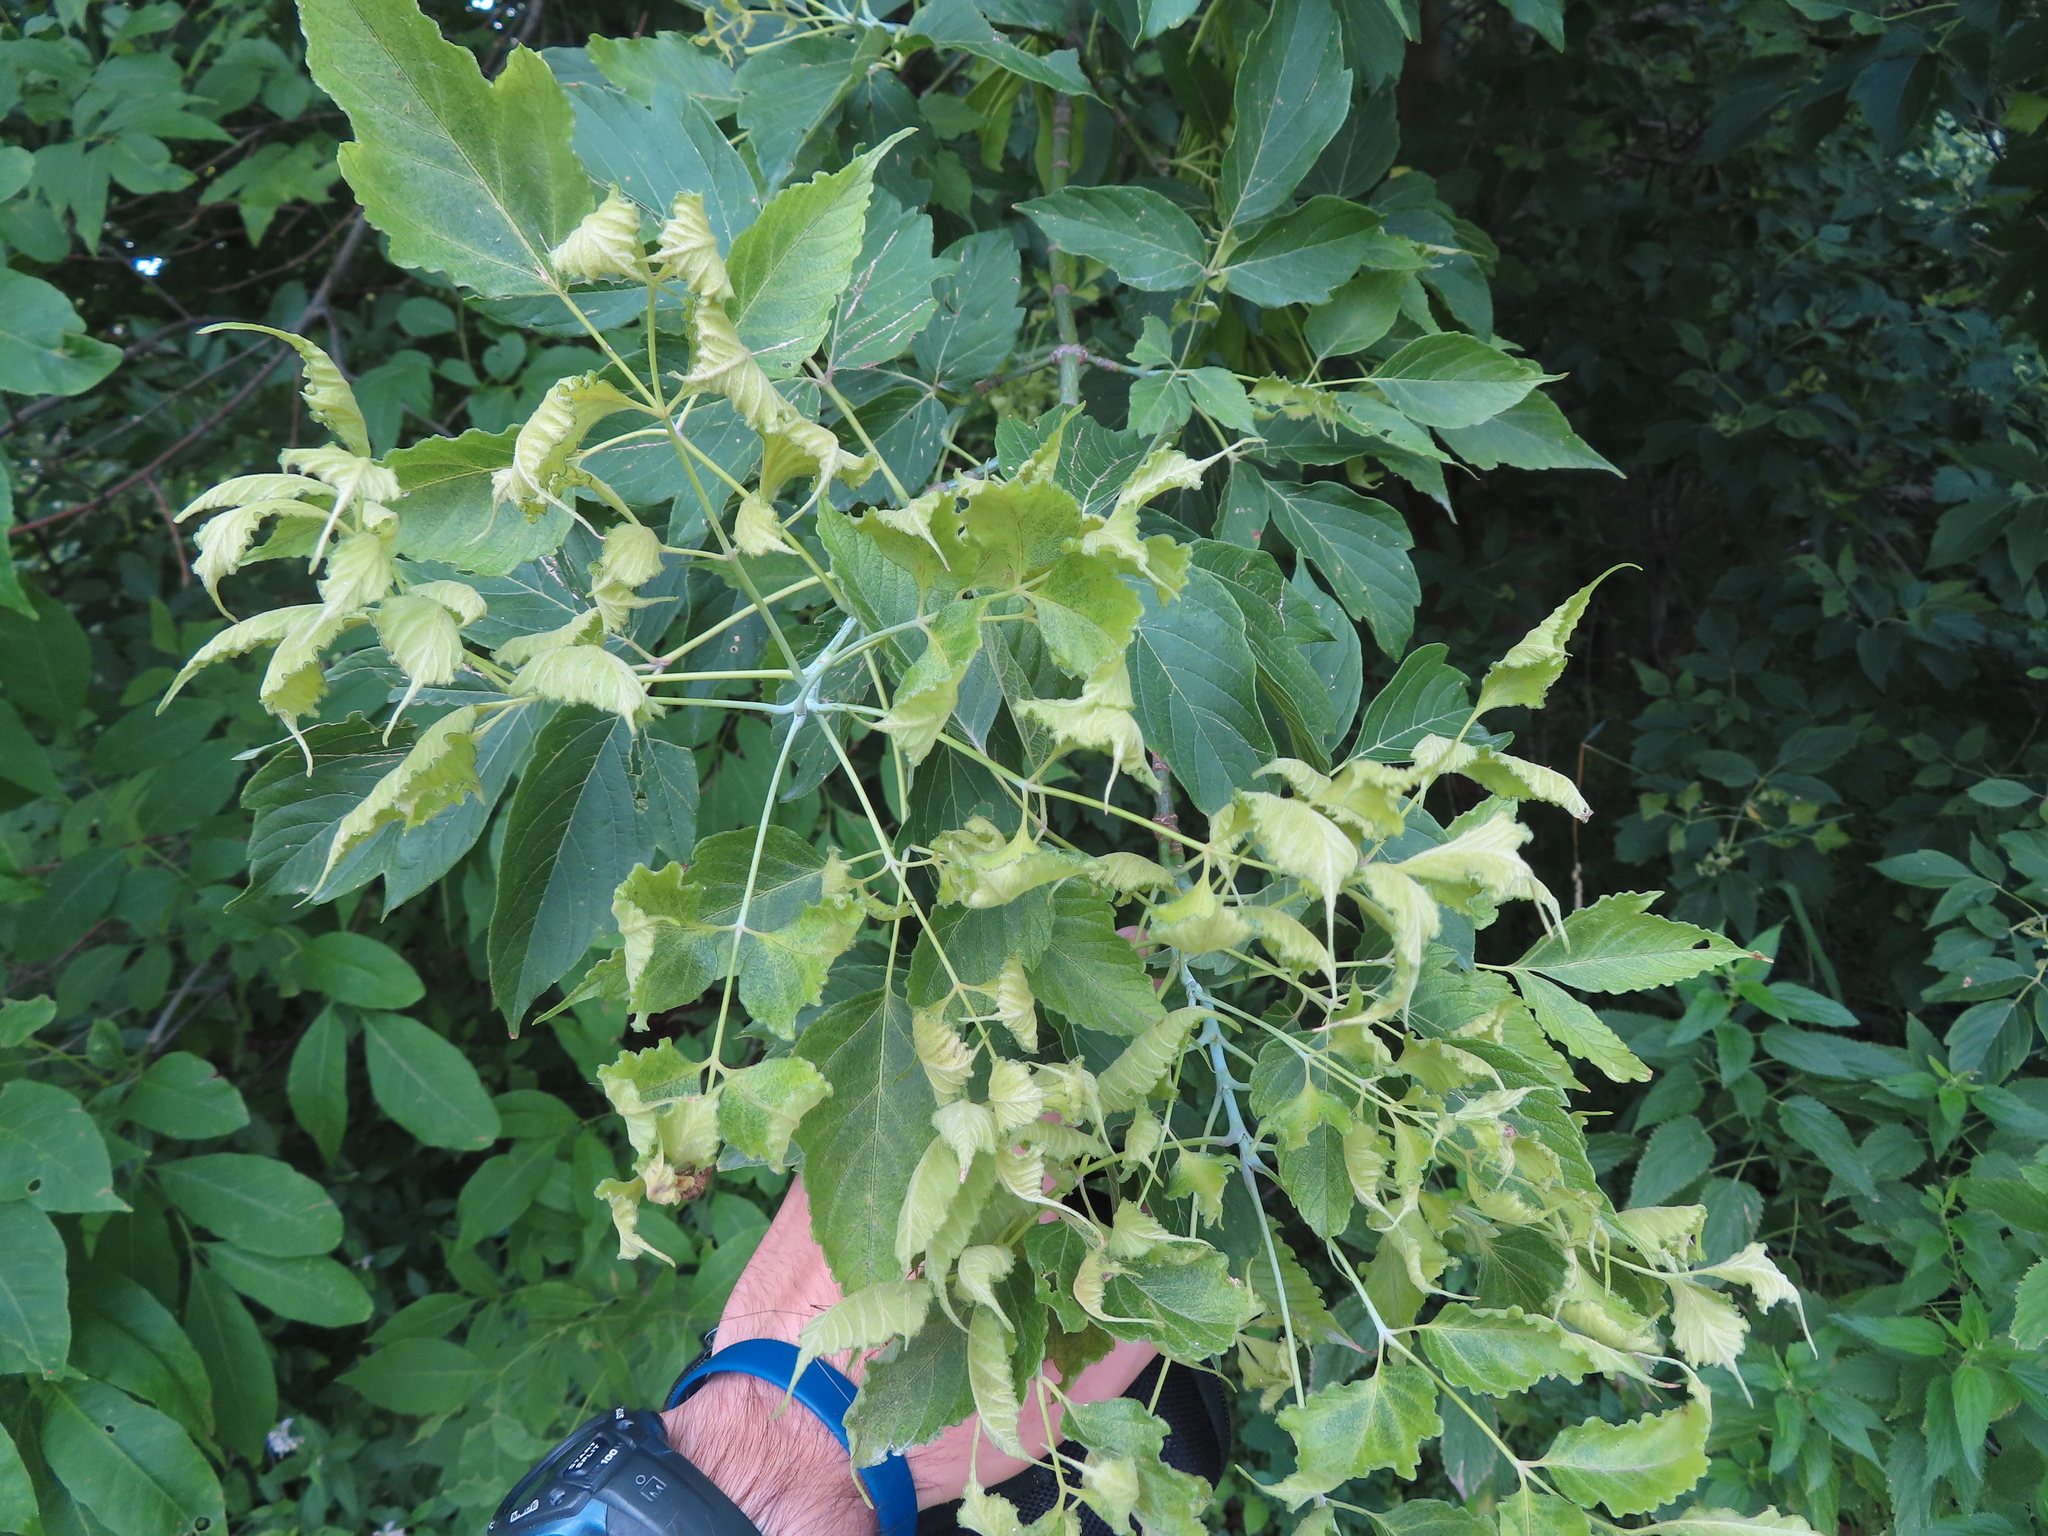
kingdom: Plantae
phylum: Tracheophyta
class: Magnoliopsida
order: Sapindales
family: Sapindaceae
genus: Acer
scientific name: Acer negundo
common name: Ashleaf maple
